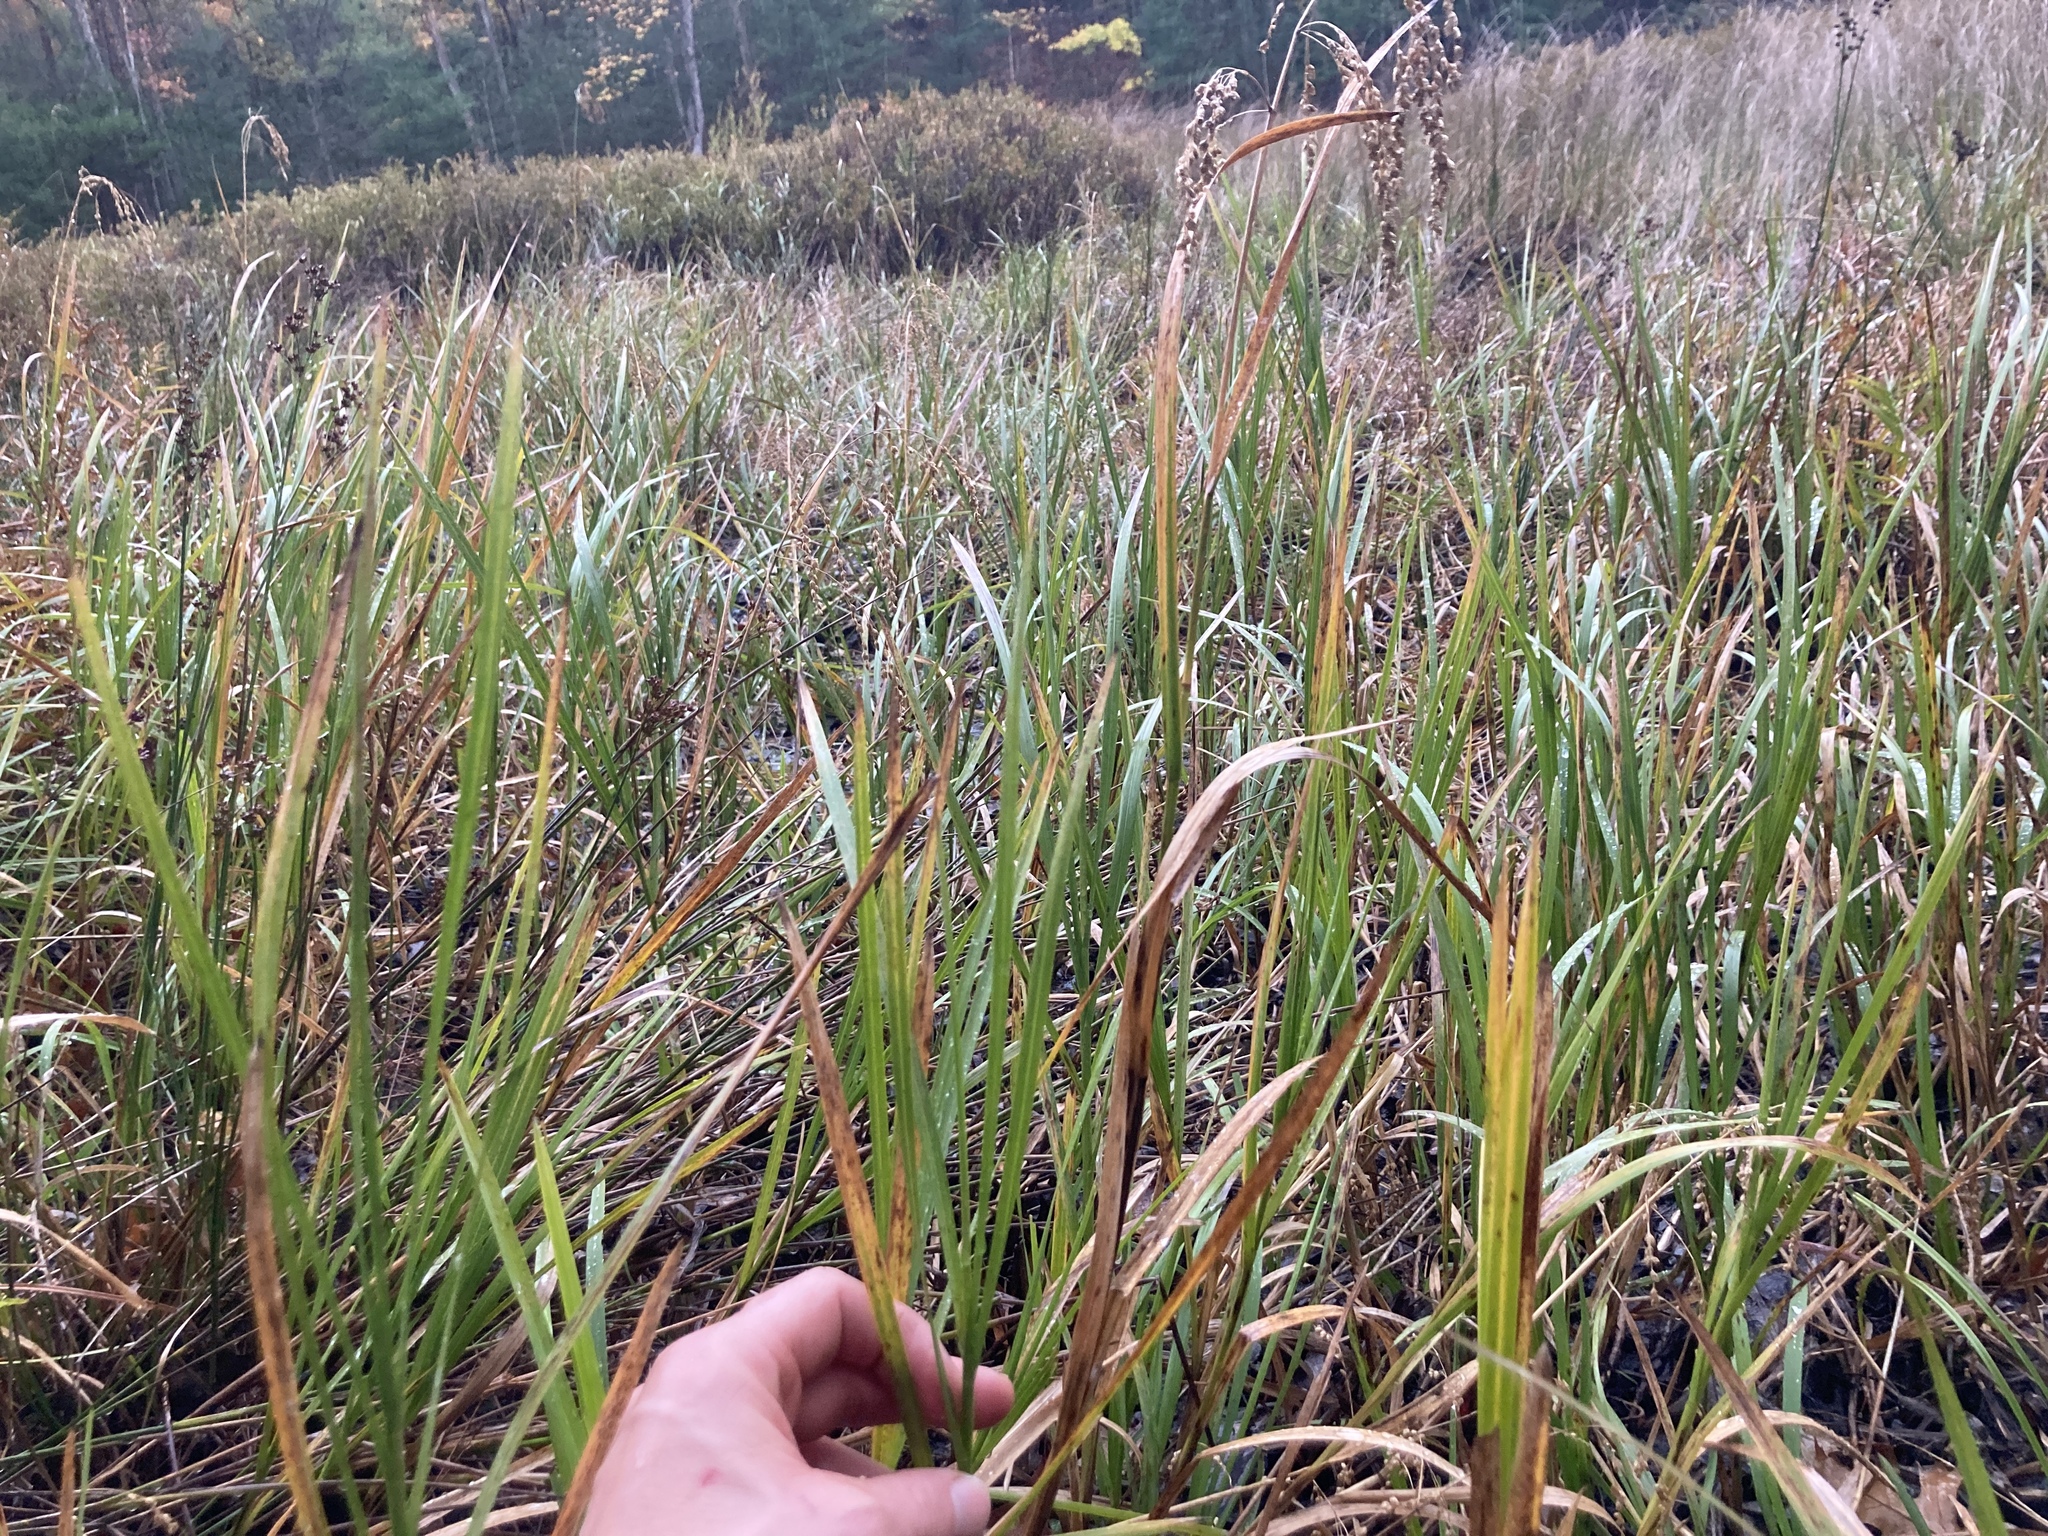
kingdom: Plantae
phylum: Tracheophyta
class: Liliopsida
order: Poales
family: Poaceae
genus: Glyceria
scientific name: Glyceria canadensis
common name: Canada mannagrass
